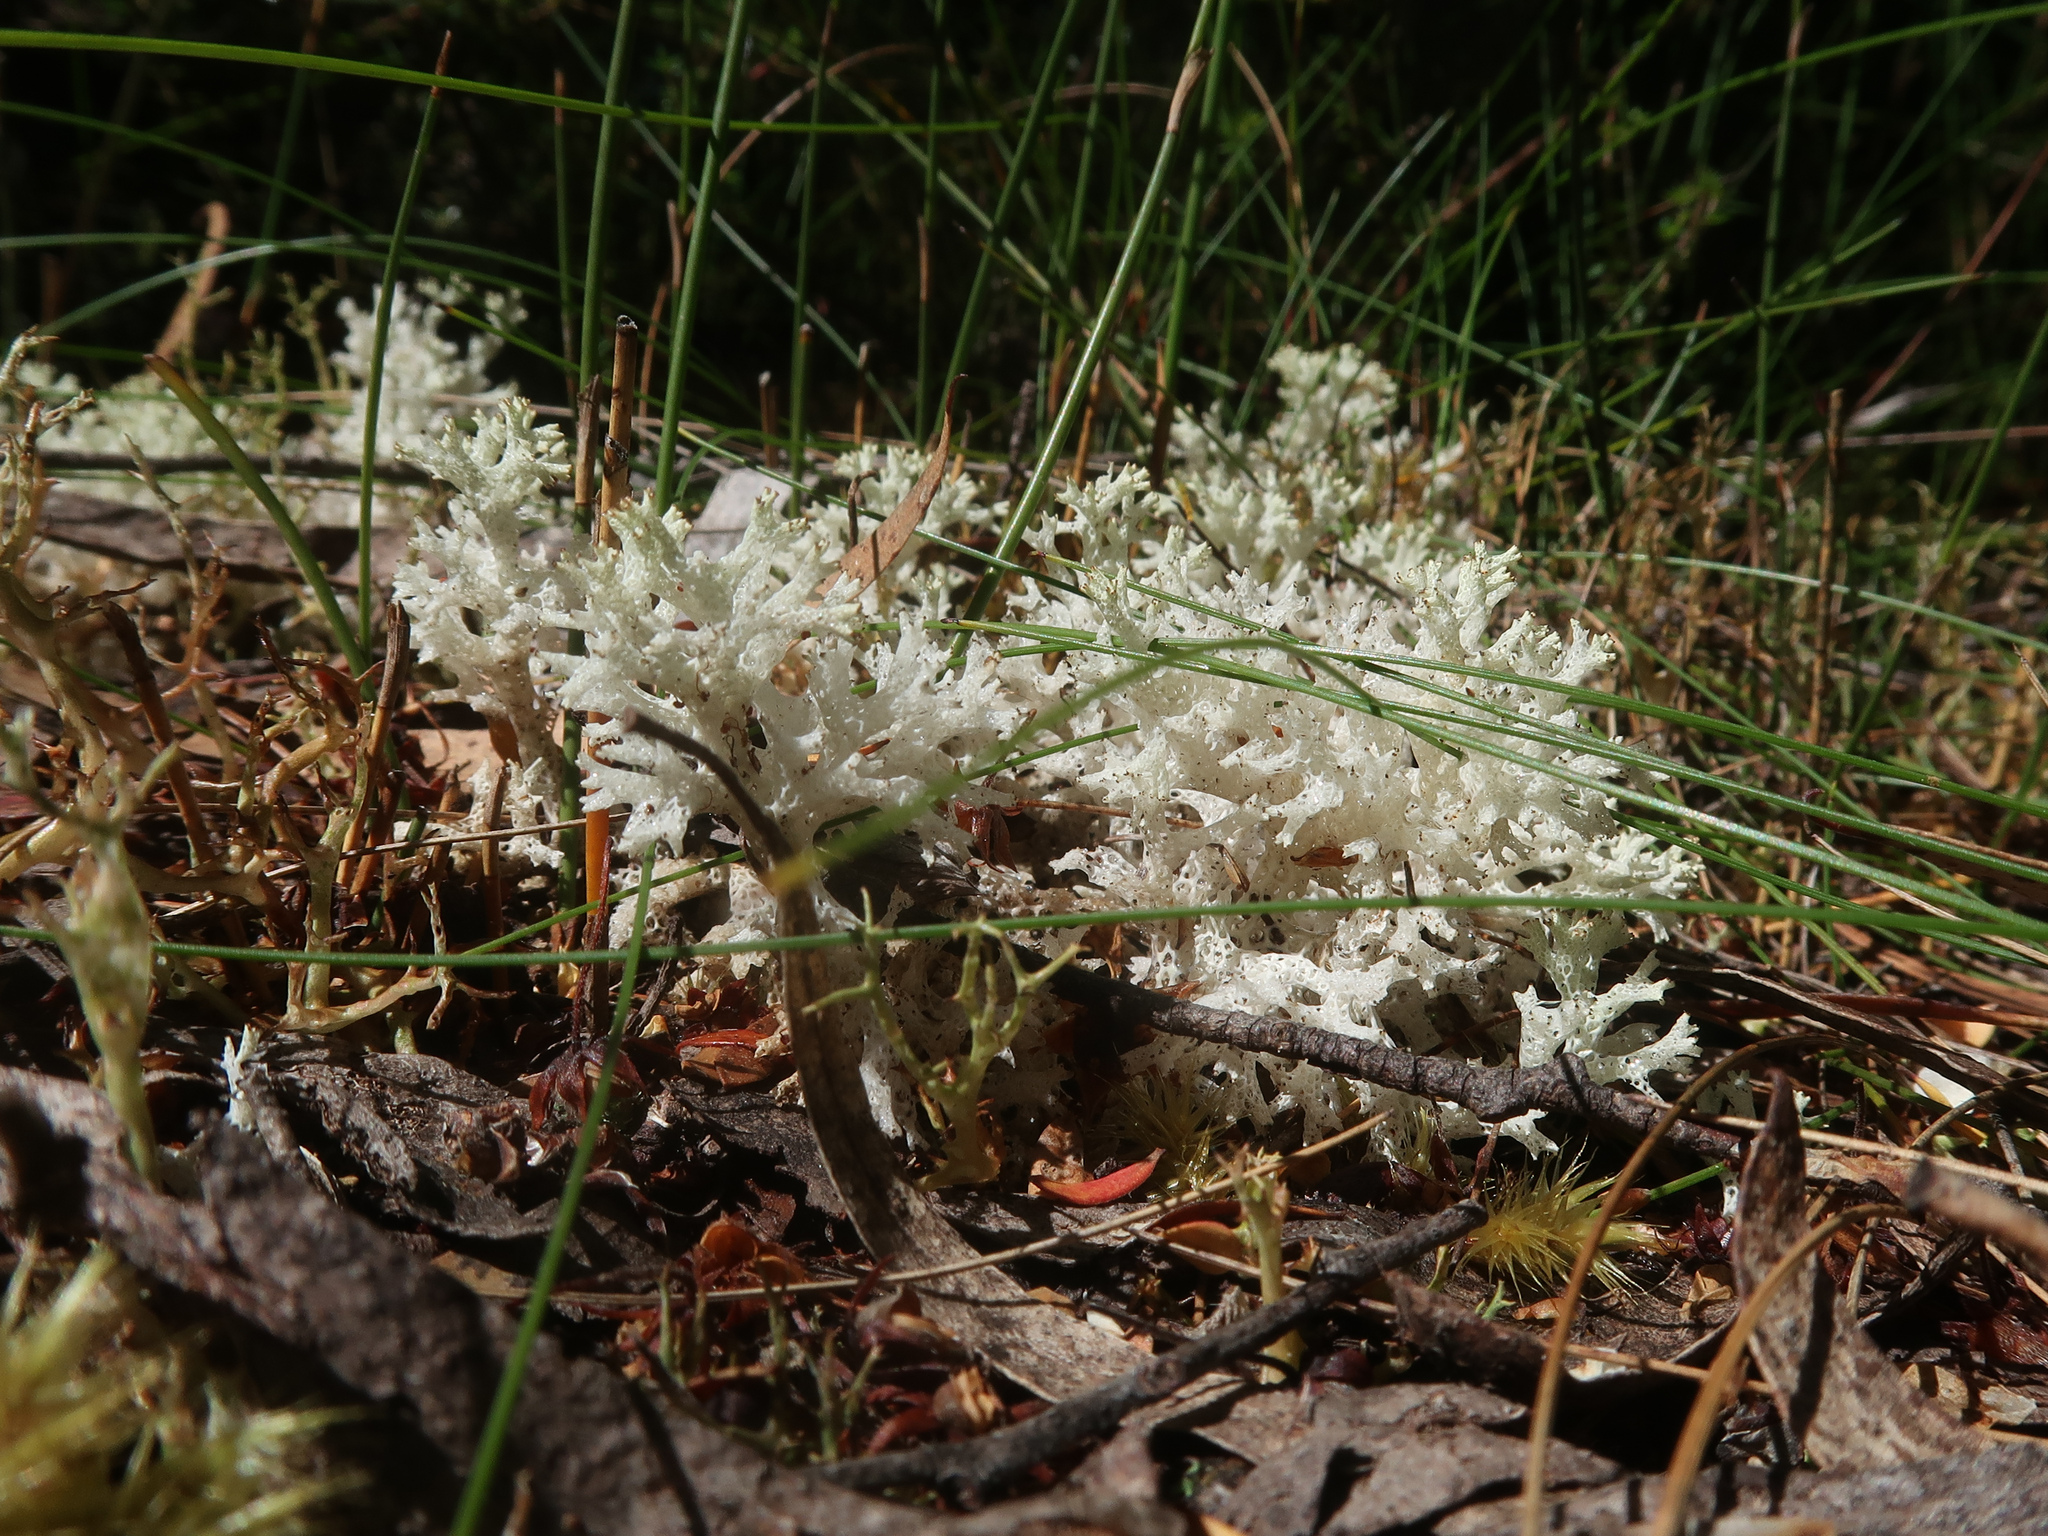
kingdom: Fungi
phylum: Ascomycota
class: Lecanoromycetes
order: Lecanorales
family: Cladoniaceae
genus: Pulchrocladia
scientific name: Pulchrocladia retipora
